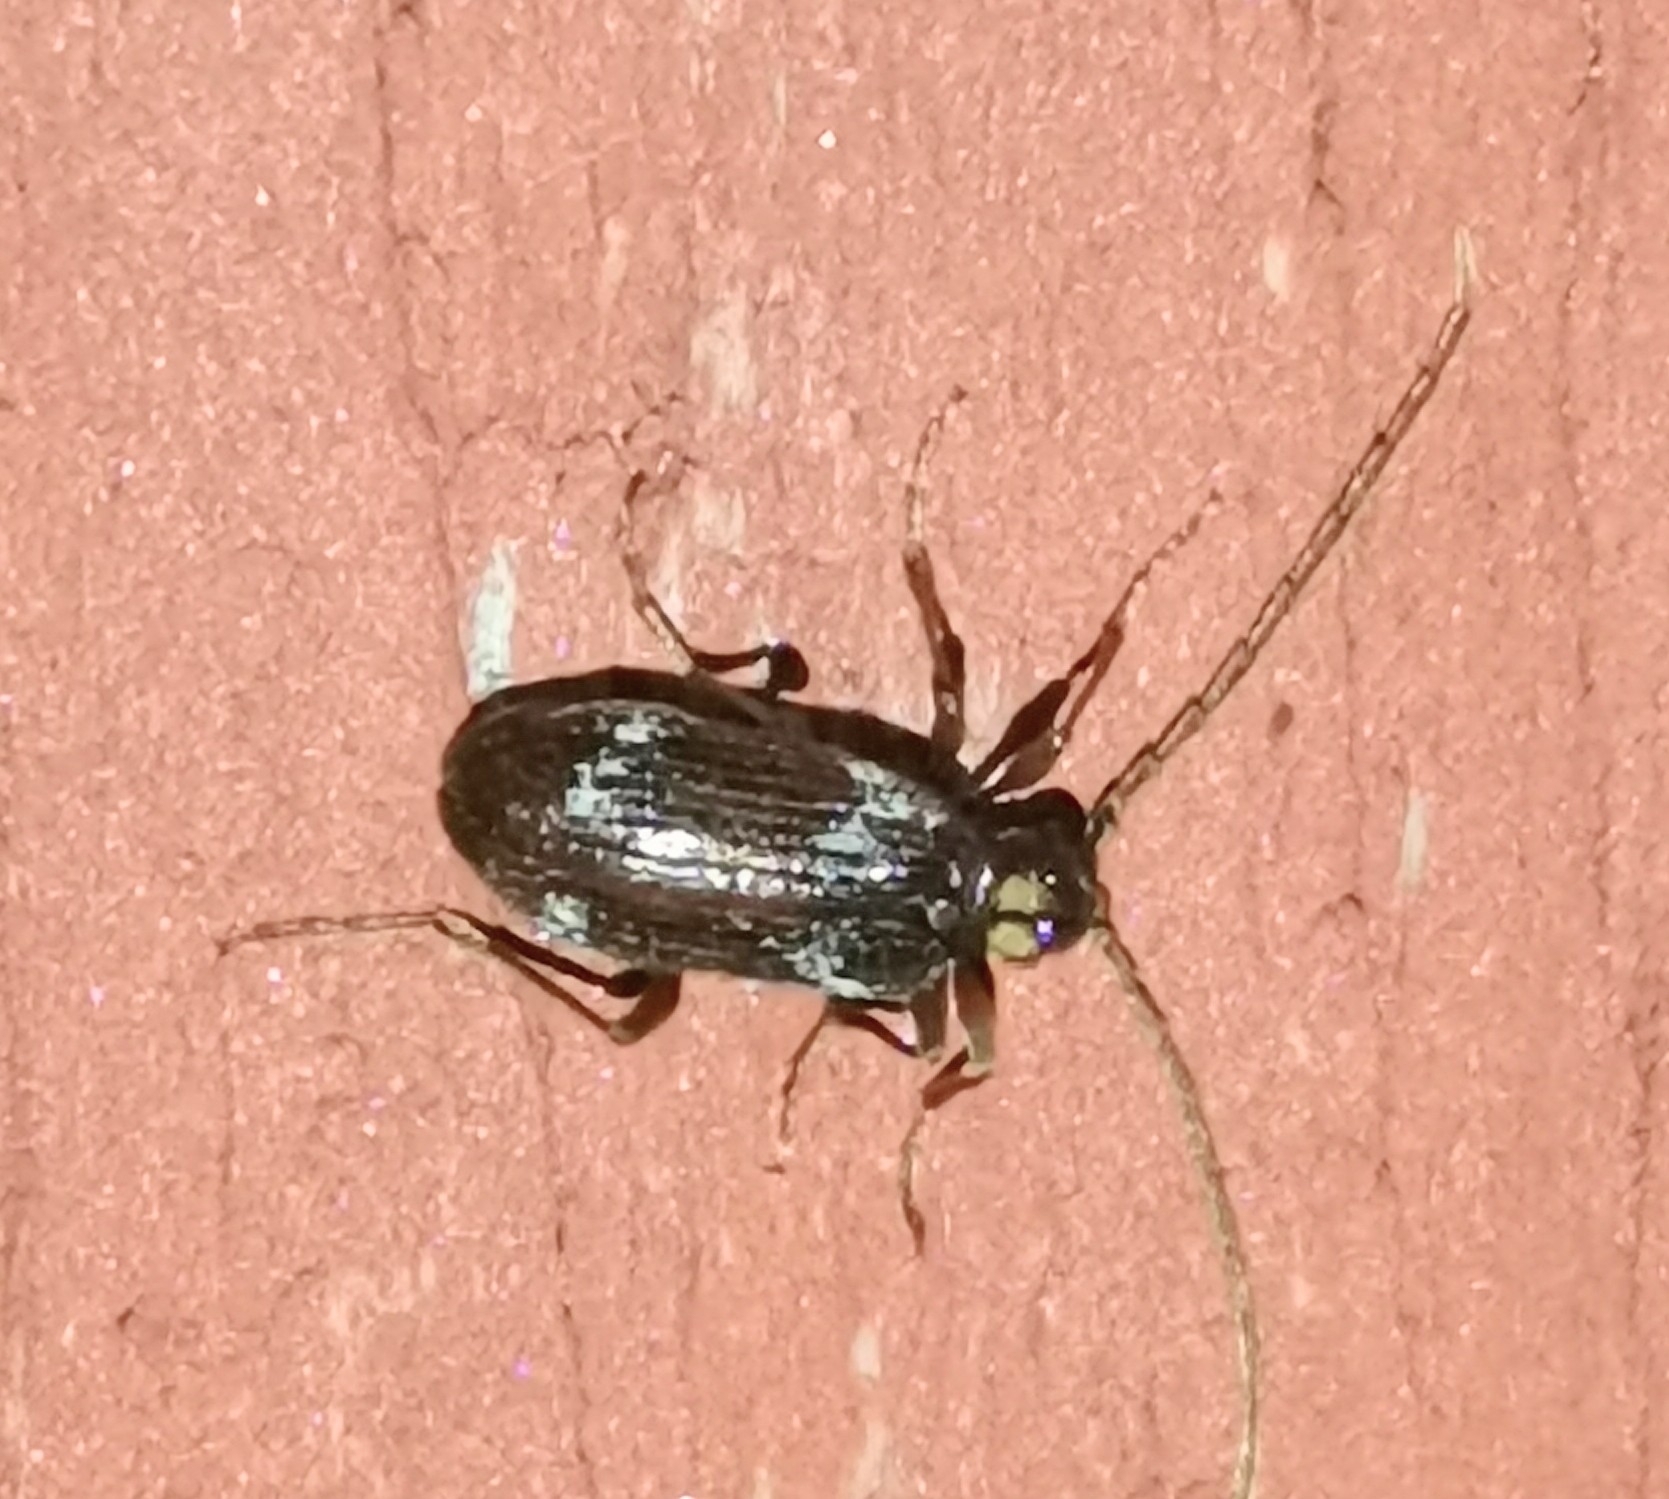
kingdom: Animalia
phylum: Arthropoda
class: Insecta
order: Coleoptera
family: Ptinidae
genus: Ptinus
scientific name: Ptinus raptor
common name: Eastern spider beetle
